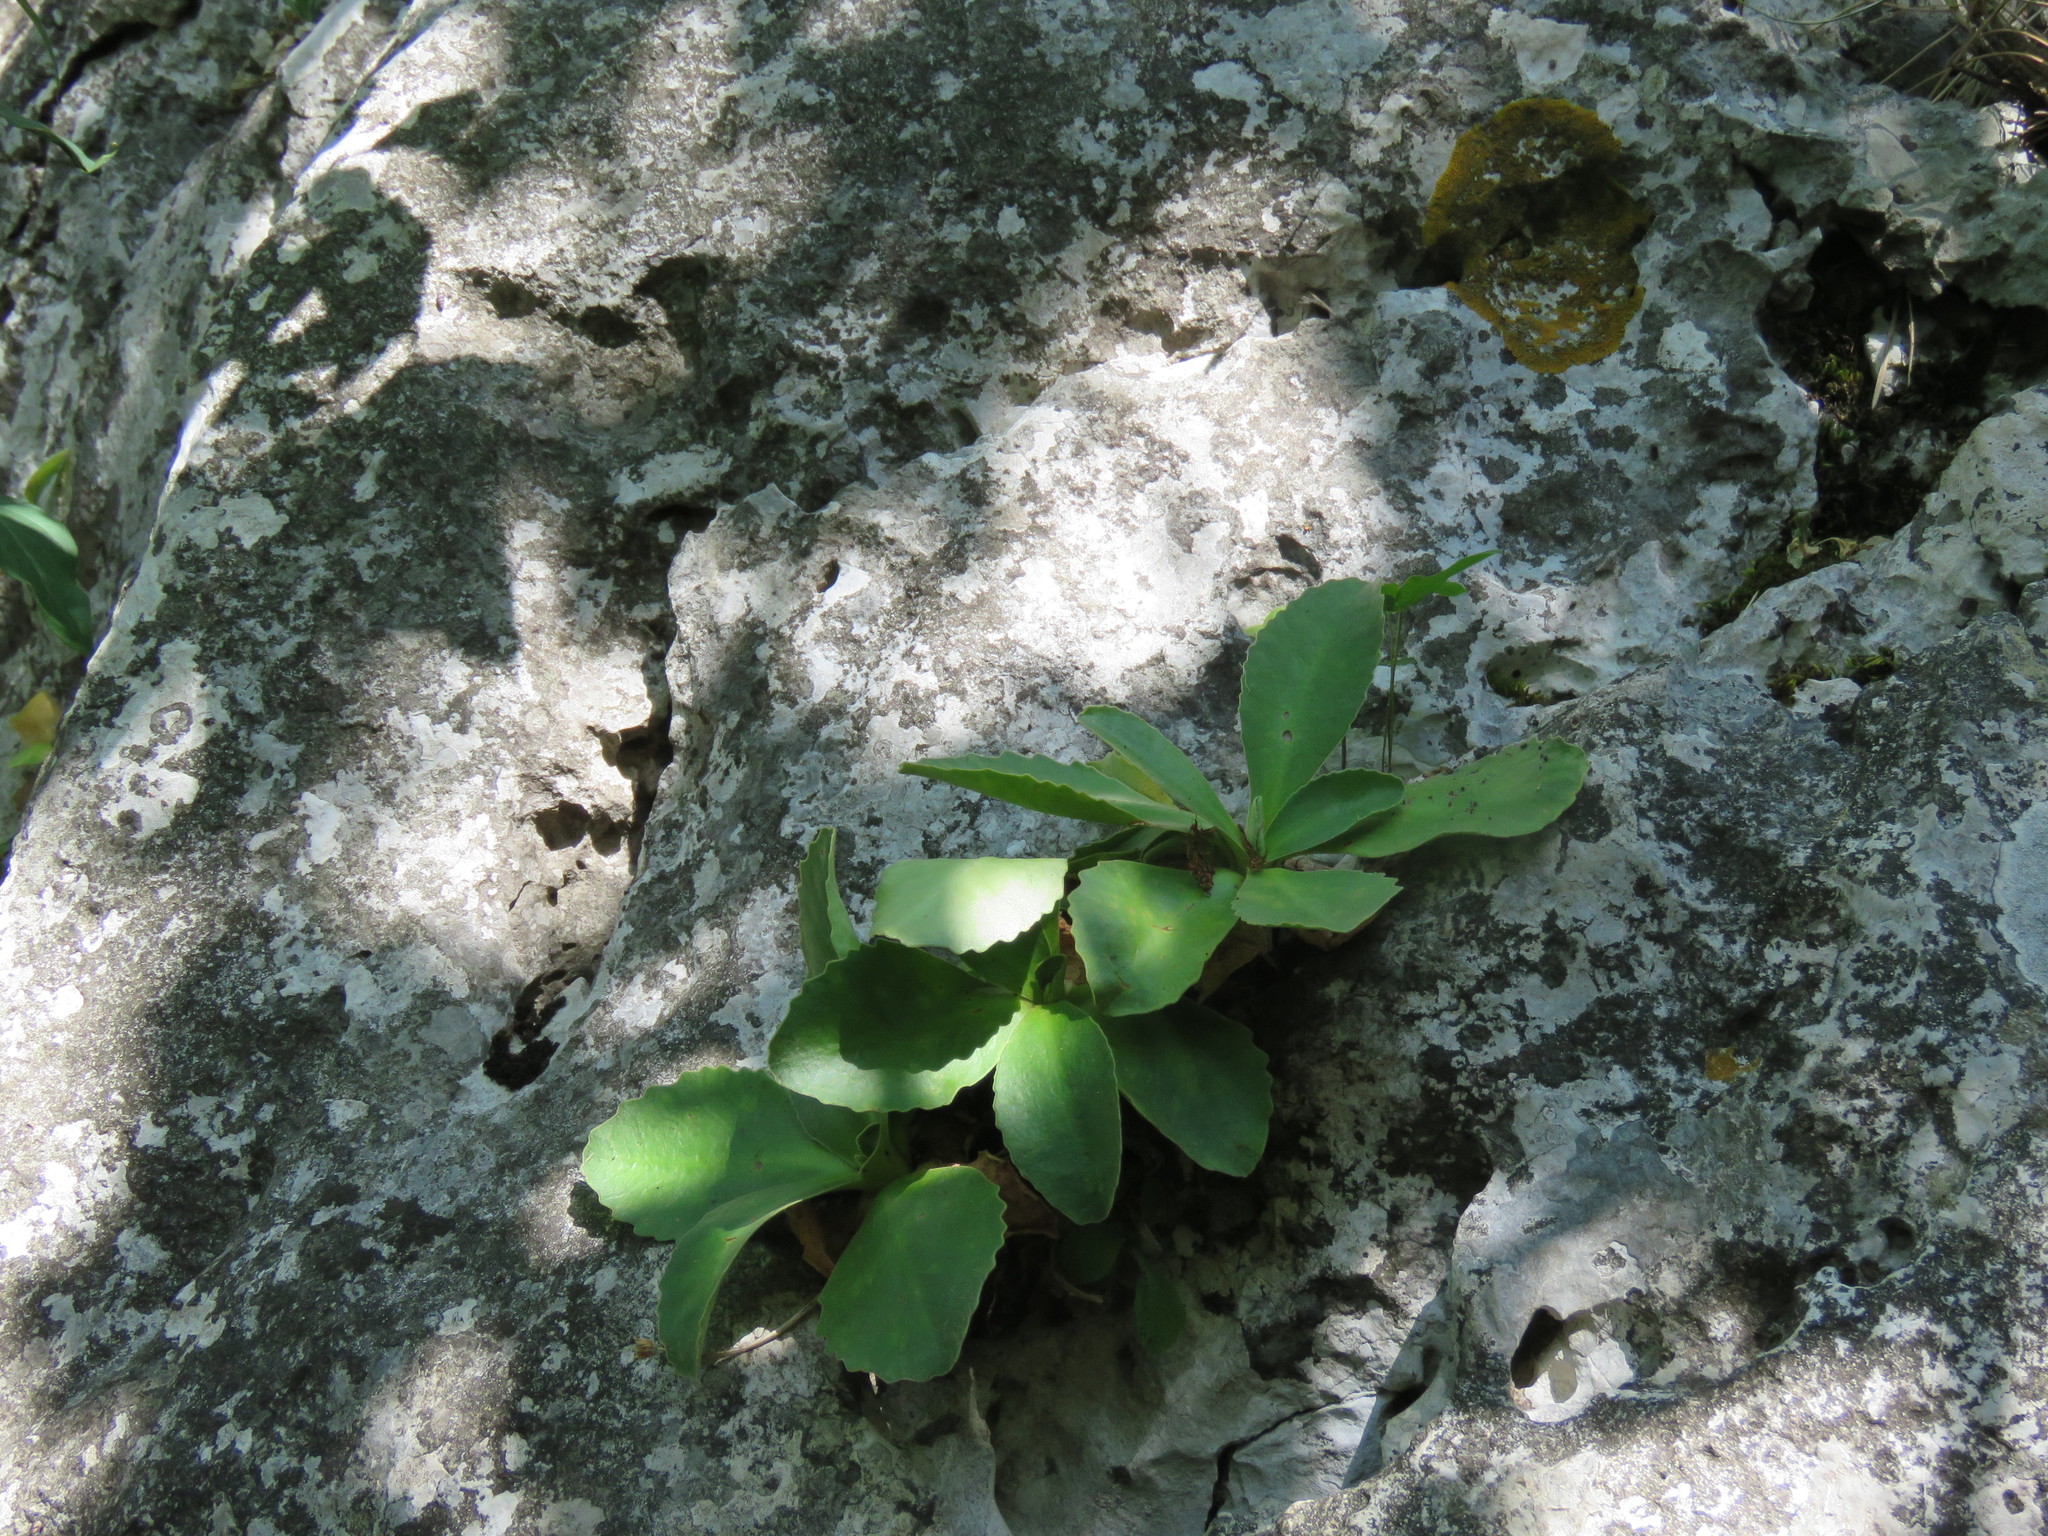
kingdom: Plantae
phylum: Tracheophyta
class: Magnoliopsida
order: Ericales
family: Primulaceae
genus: Primula
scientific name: Primula auricula
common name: Auricula
